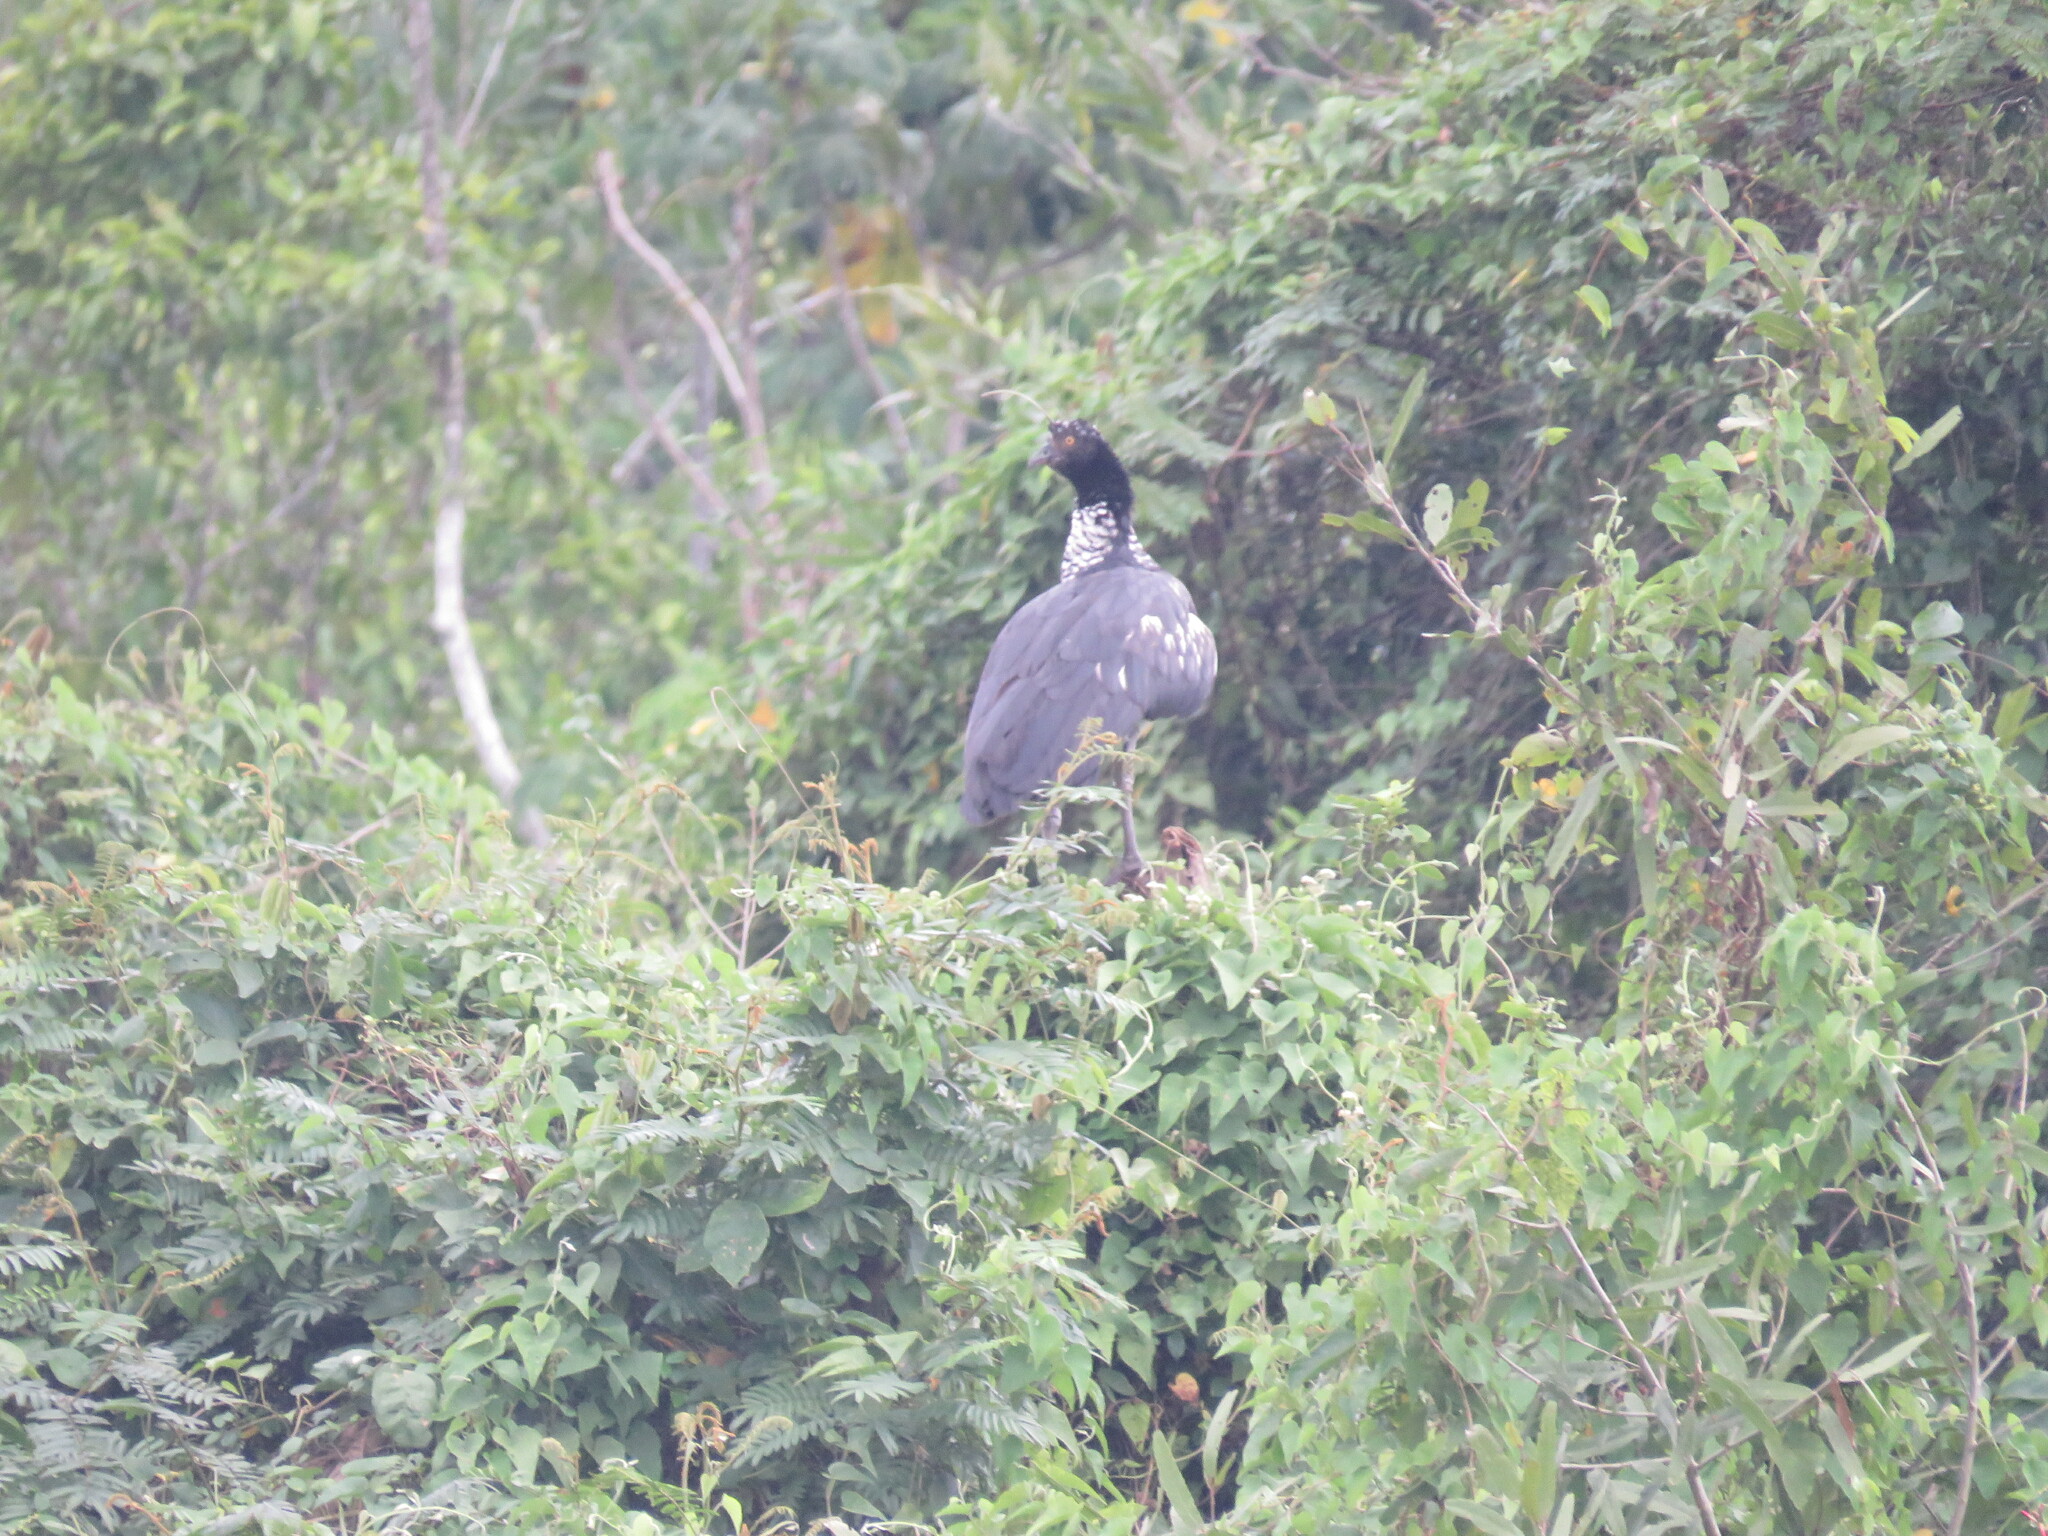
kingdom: Animalia
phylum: Chordata
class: Aves
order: Anseriformes
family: Anhimidae
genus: Anhima
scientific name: Anhima cornuta
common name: Horned screamer
